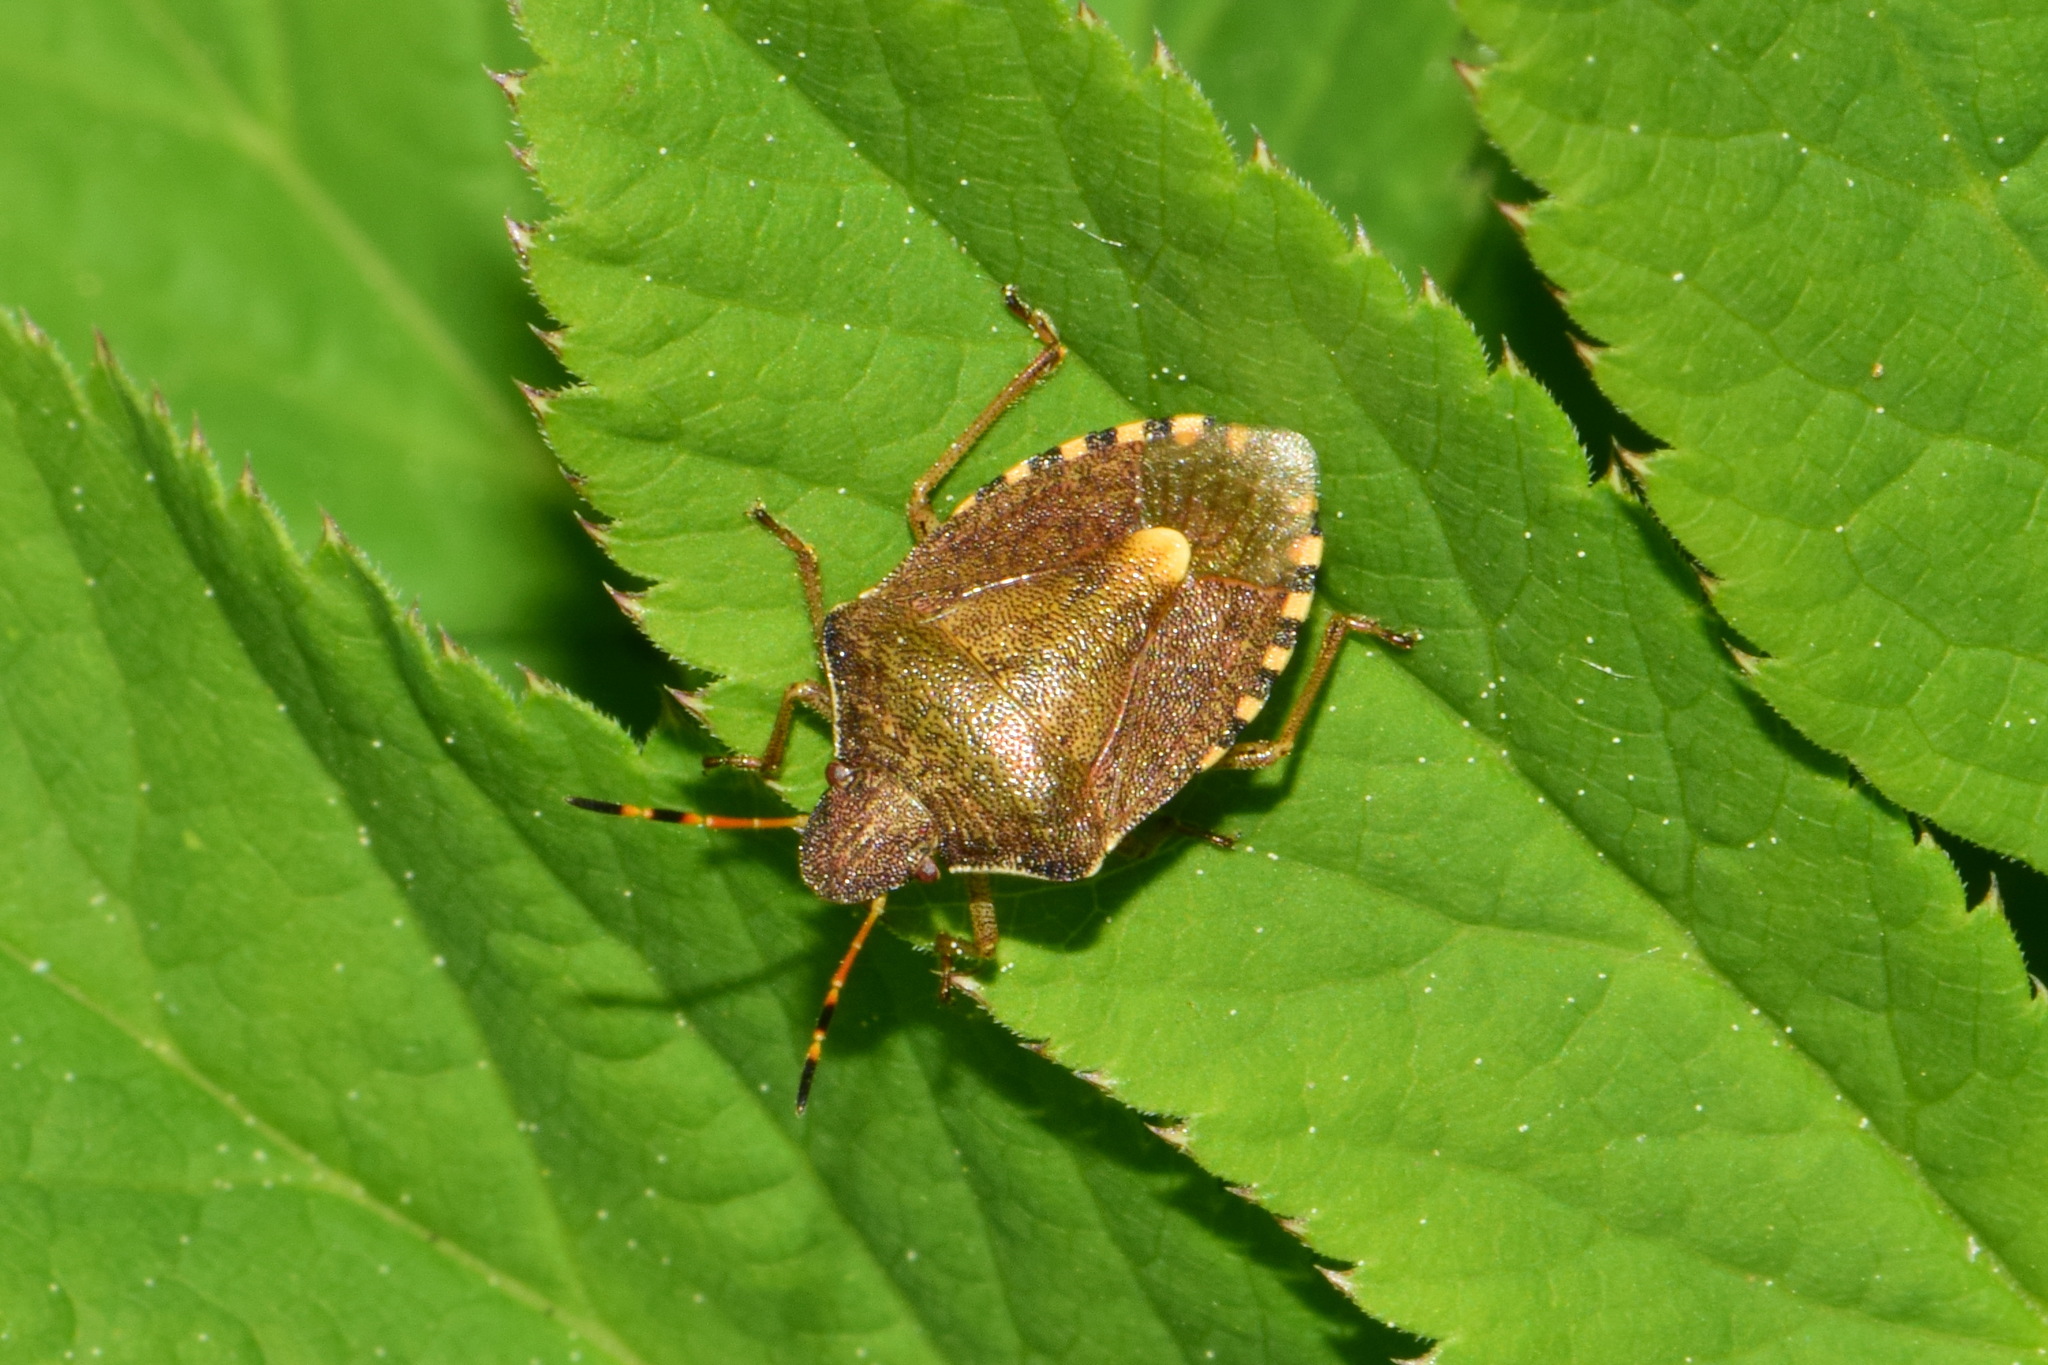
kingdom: Animalia
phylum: Arthropoda
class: Insecta
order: Hemiptera
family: Pentatomidae
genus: Holcostethus
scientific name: Holcostethus strictus
